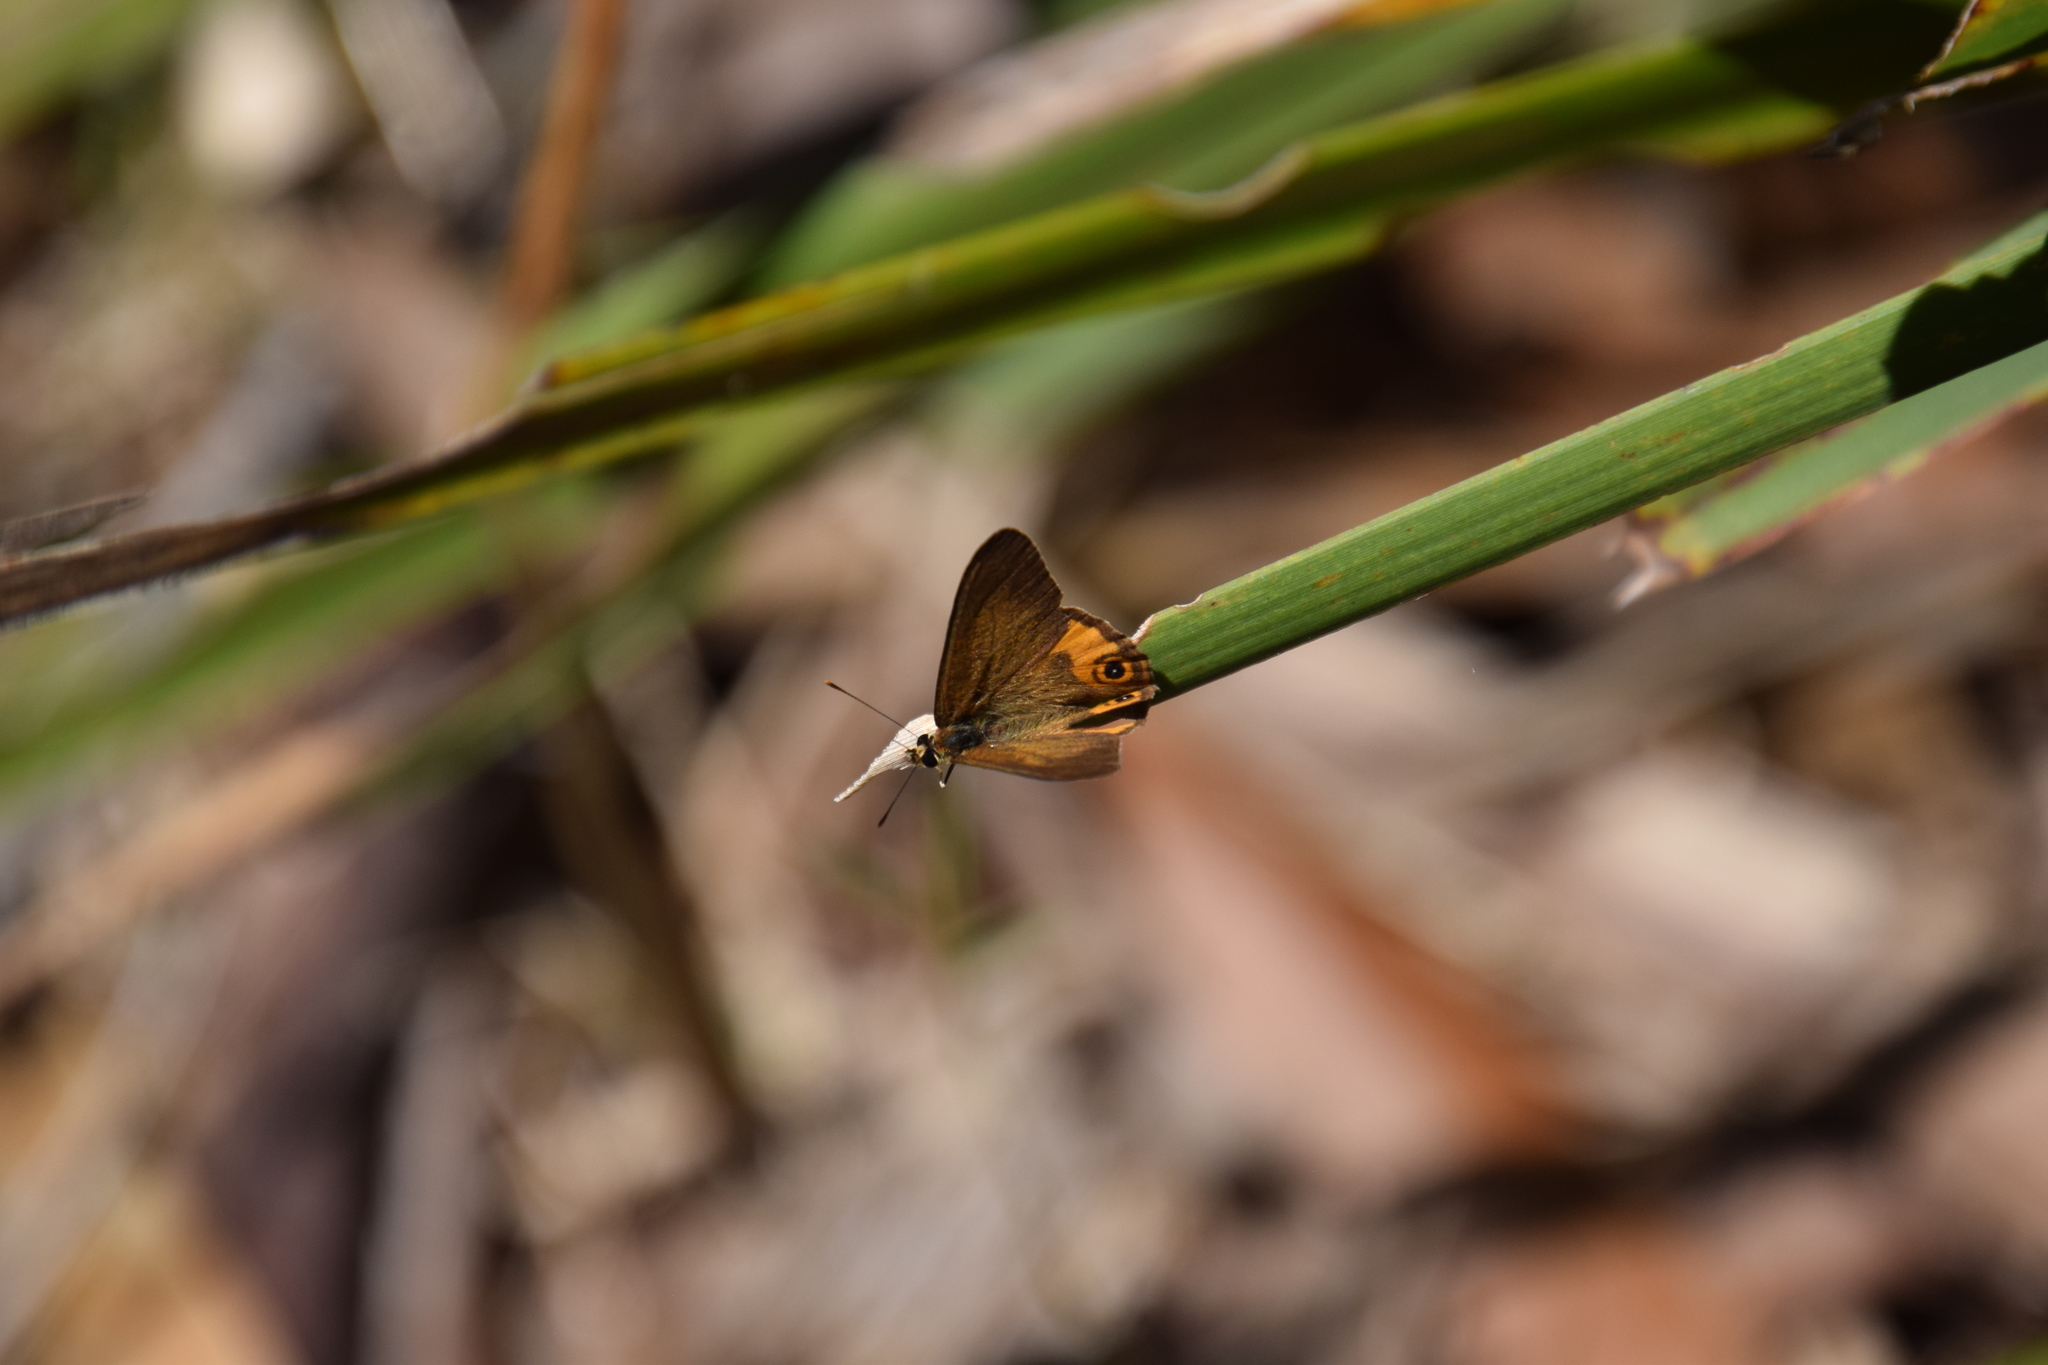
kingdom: Animalia
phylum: Arthropoda
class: Insecta
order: Lepidoptera
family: Nymphalidae
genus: Hypocysta
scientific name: Hypocysta metirius
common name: Brown ringlet
